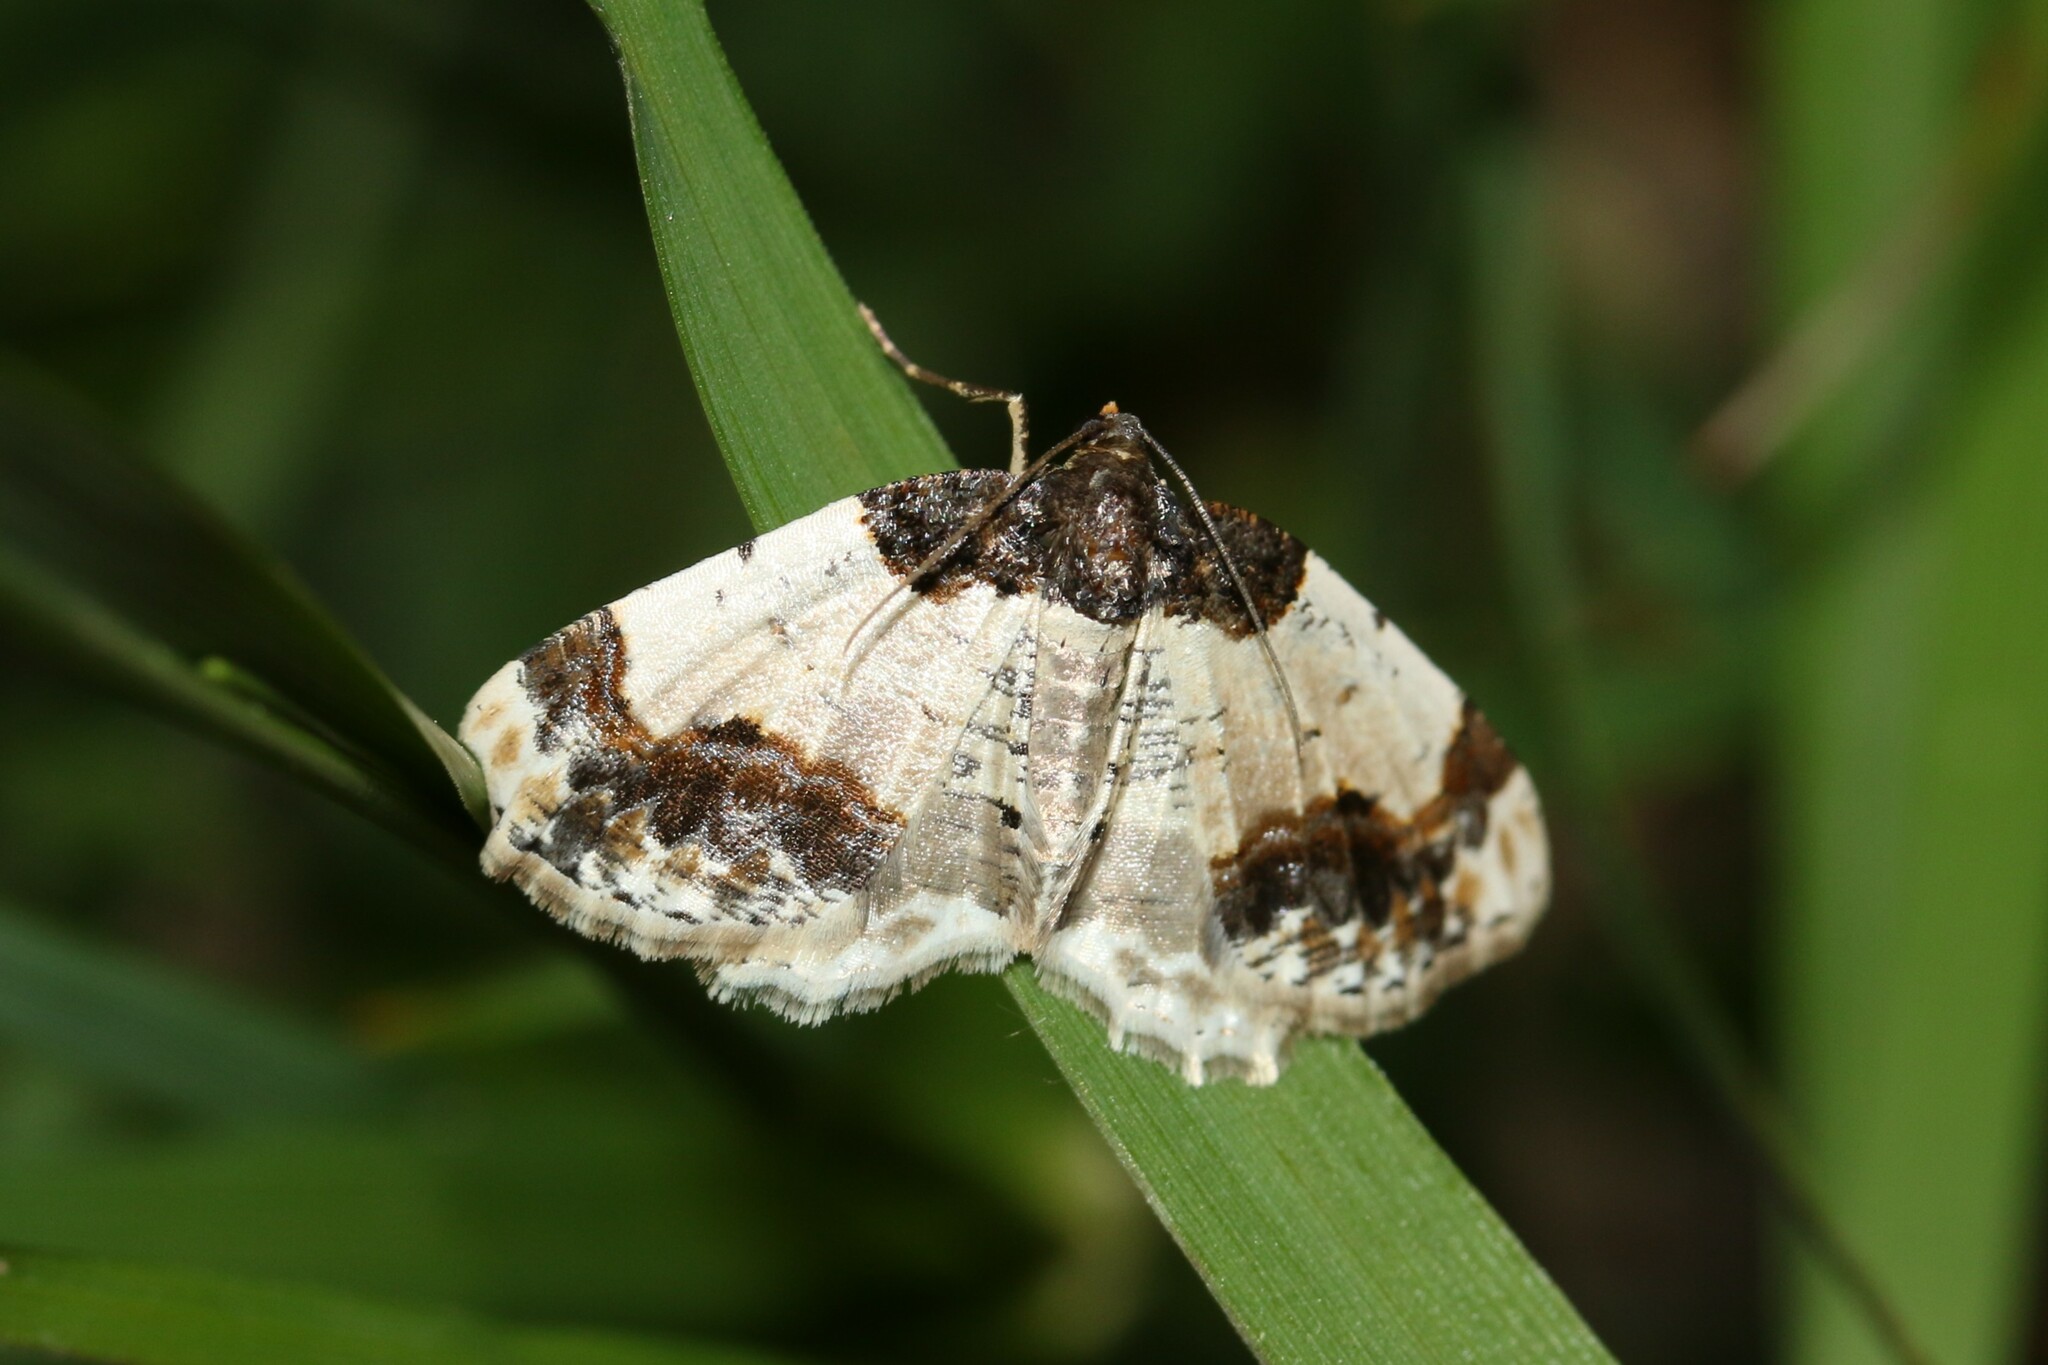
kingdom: Animalia
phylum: Arthropoda
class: Insecta
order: Lepidoptera
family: Geometridae
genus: Ligdia
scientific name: Ligdia adustata
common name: Scorched carpet
